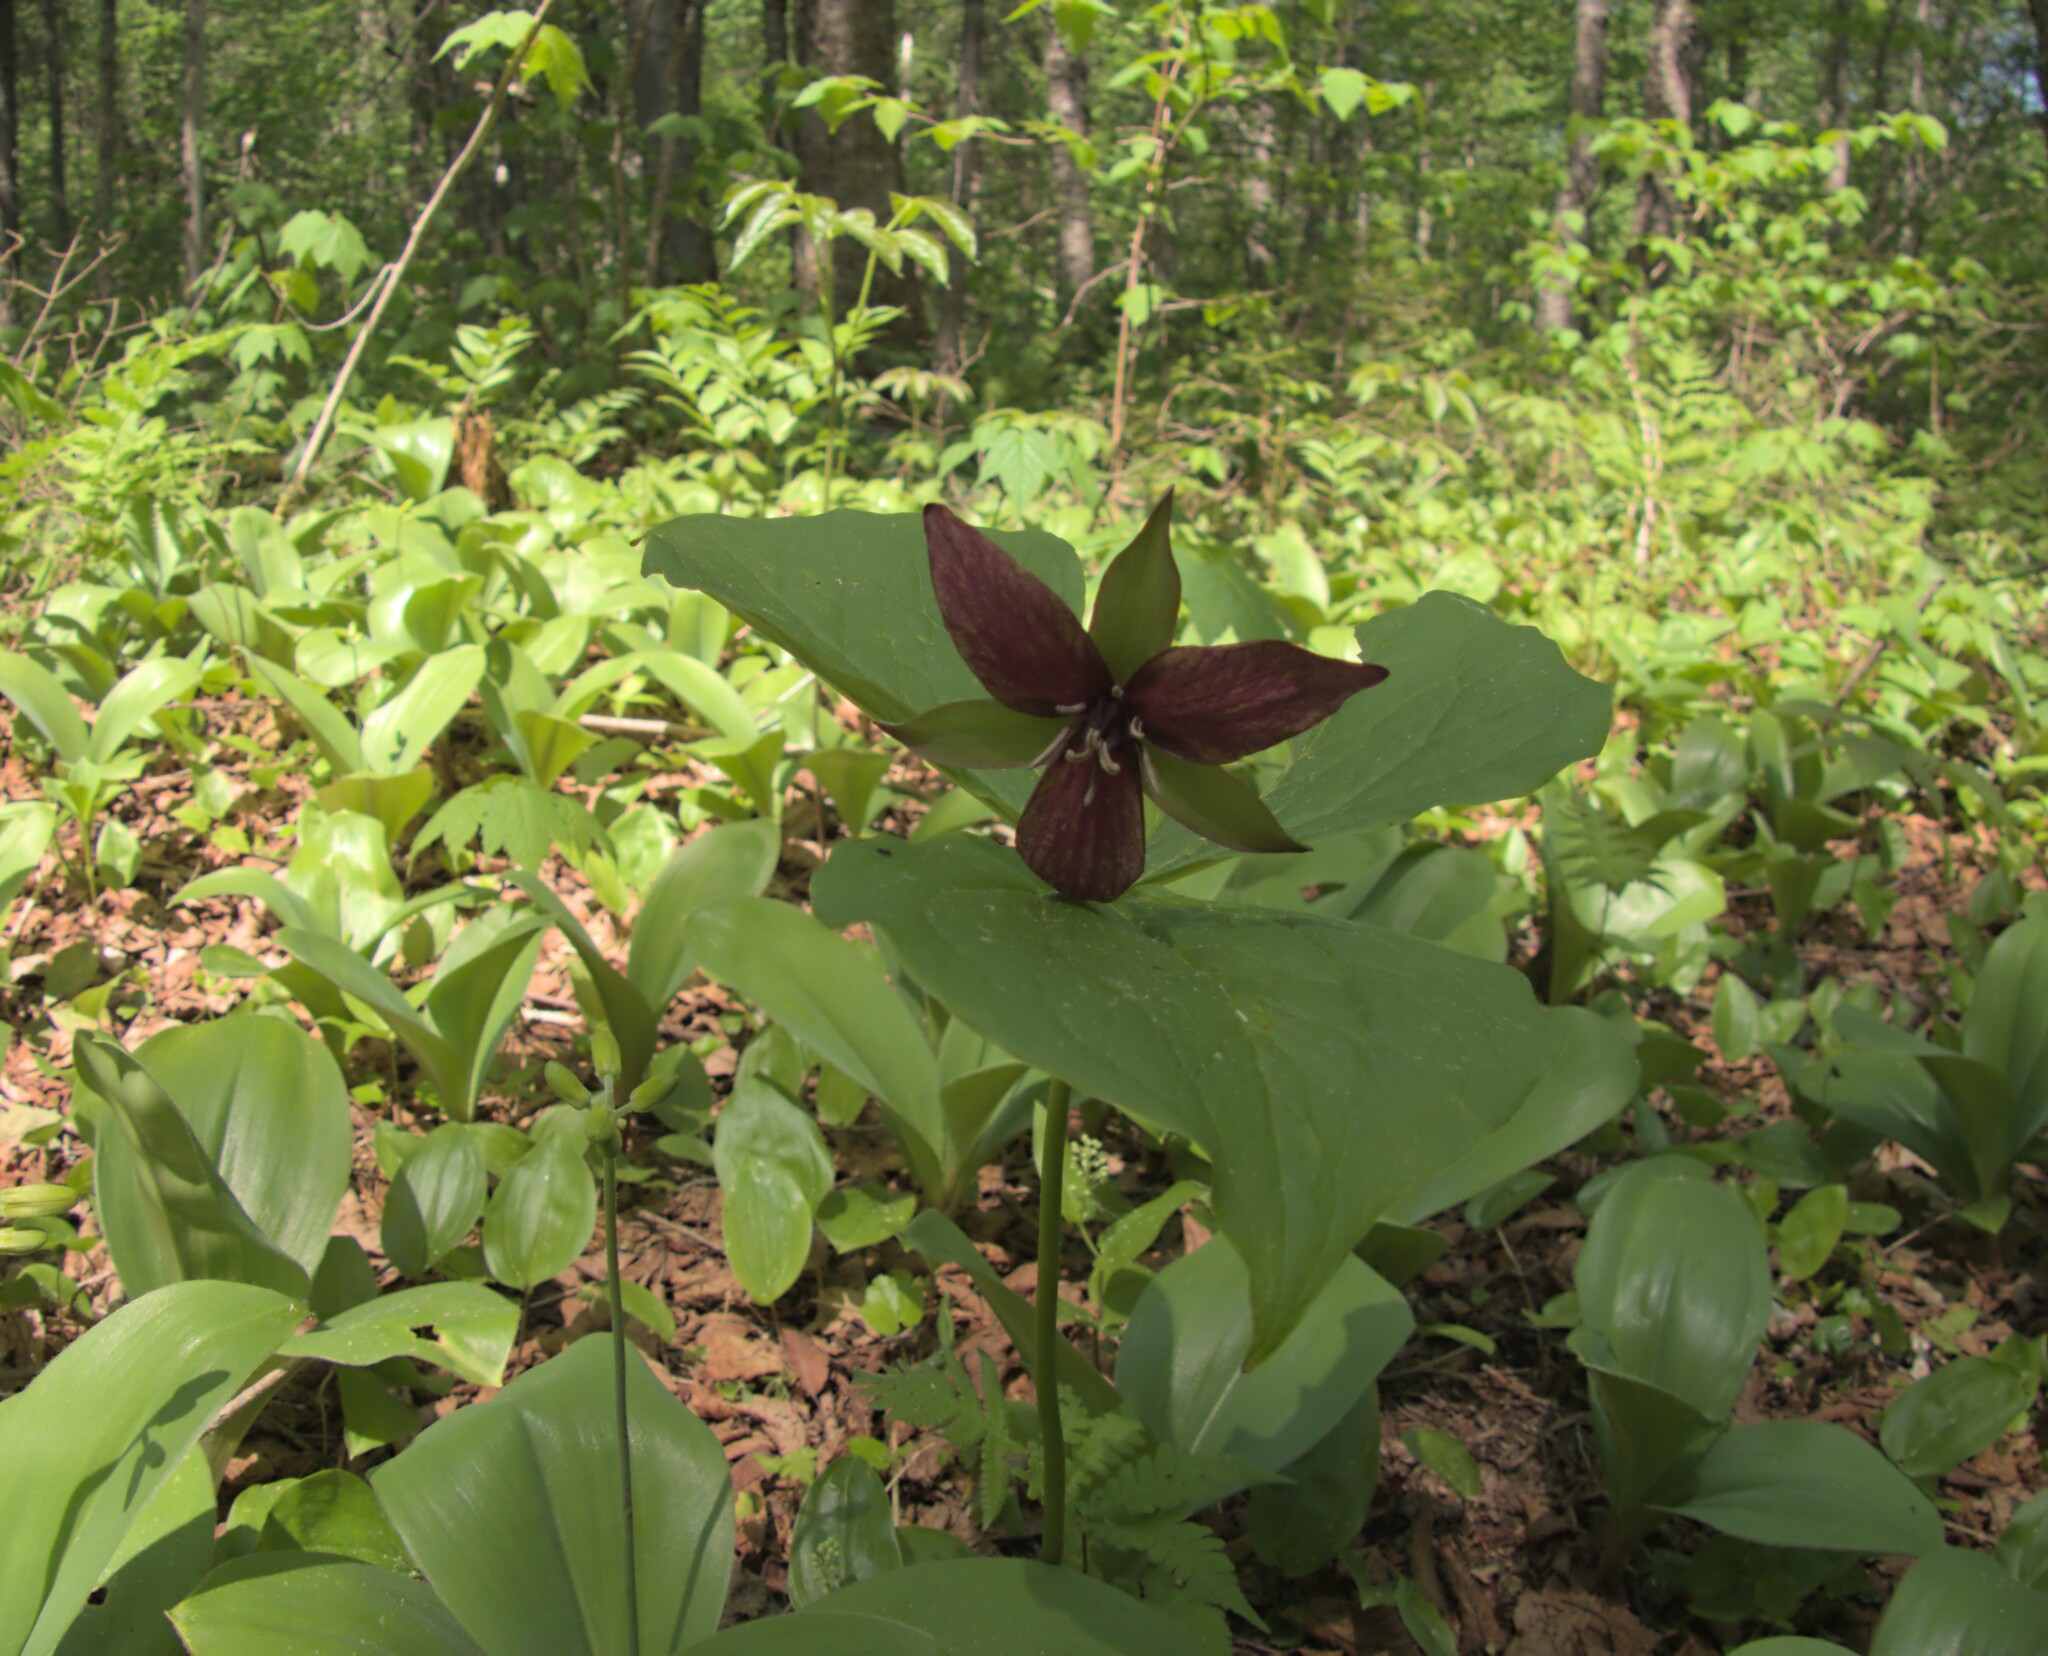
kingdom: Plantae
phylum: Tracheophyta
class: Liliopsida
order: Liliales
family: Melanthiaceae
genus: Trillium
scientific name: Trillium erectum
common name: Purple trillium
